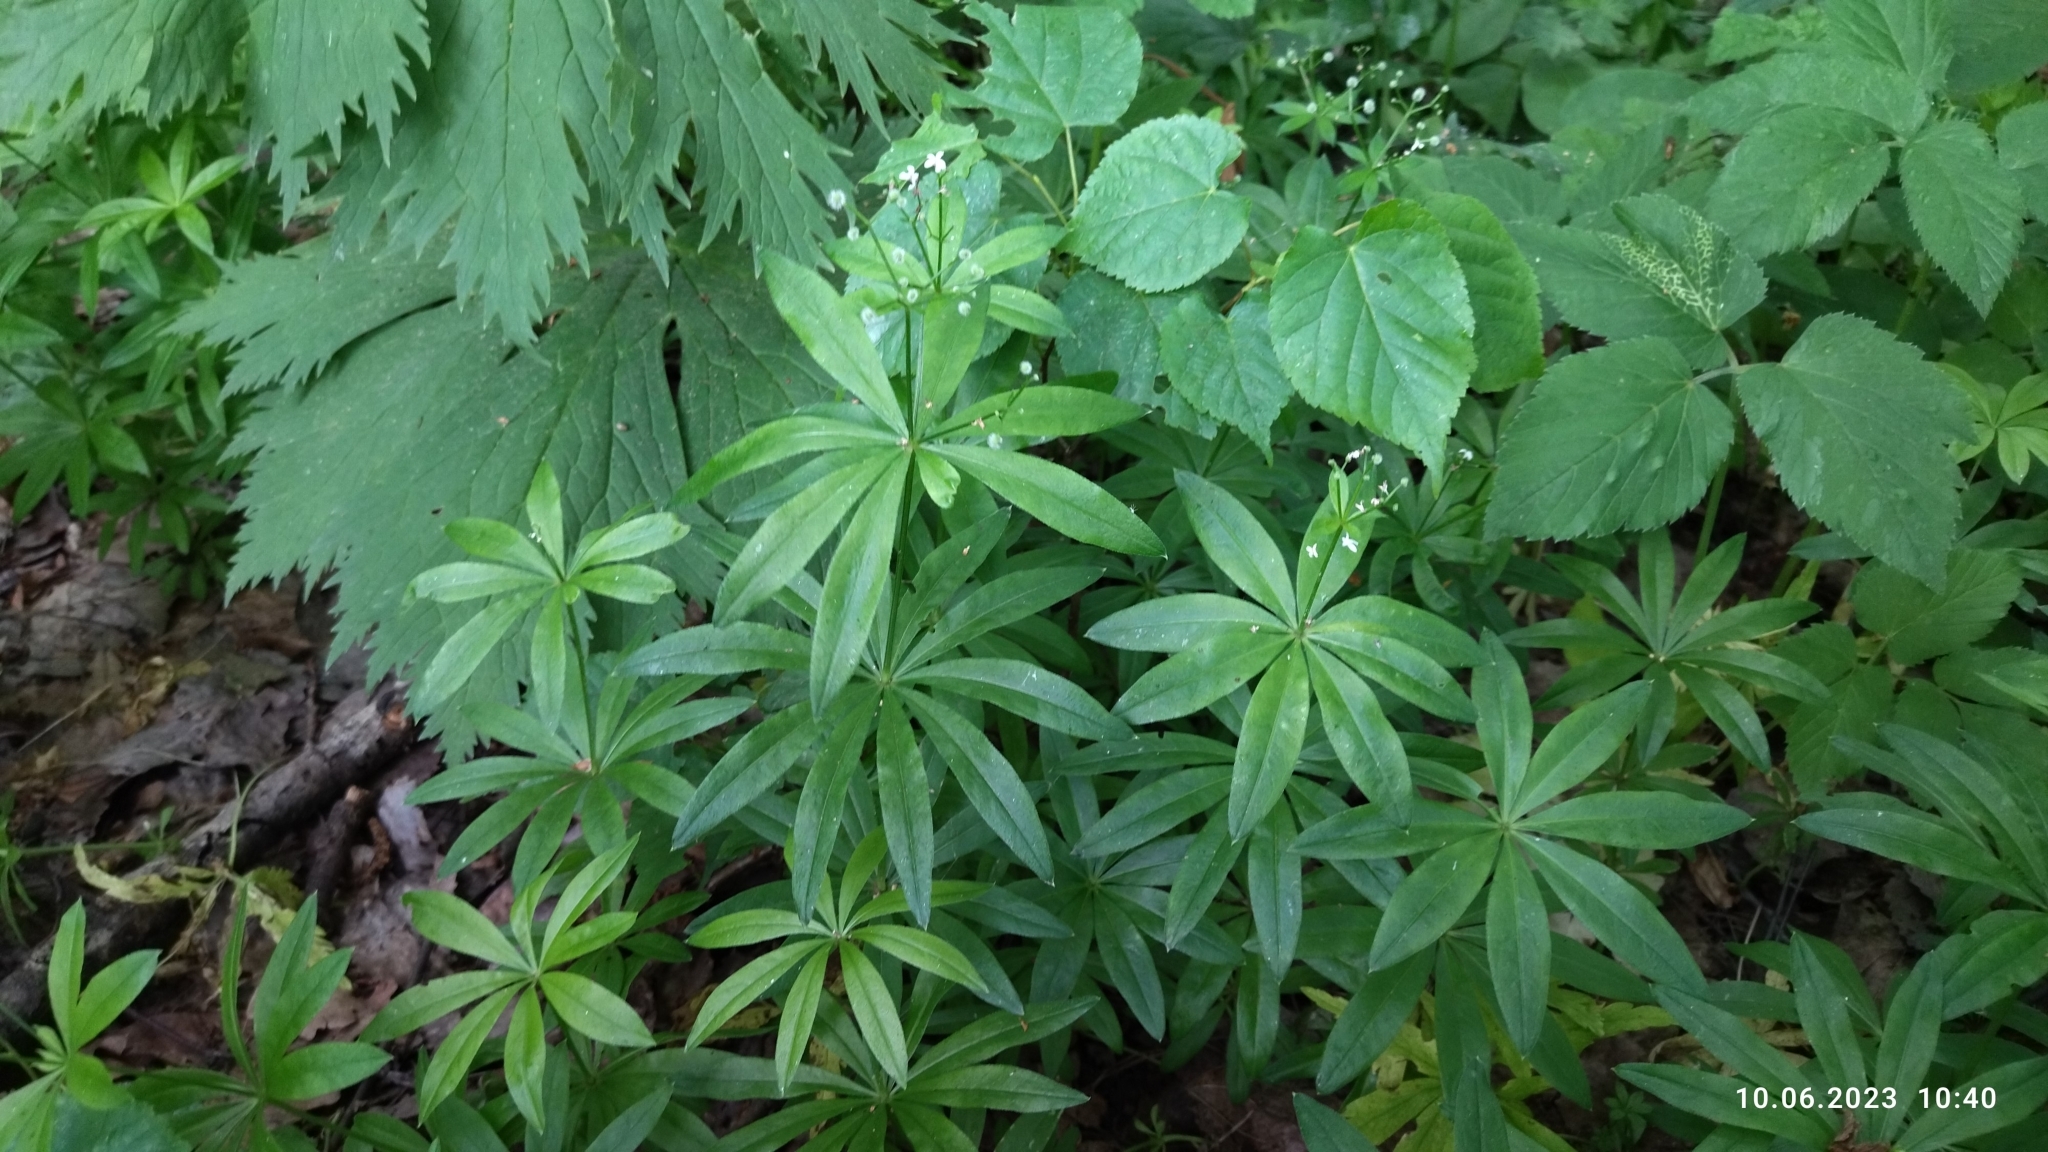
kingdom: Plantae
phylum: Tracheophyta
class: Magnoliopsida
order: Gentianales
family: Rubiaceae
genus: Galium
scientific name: Galium odoratum
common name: Sweet woodruff
